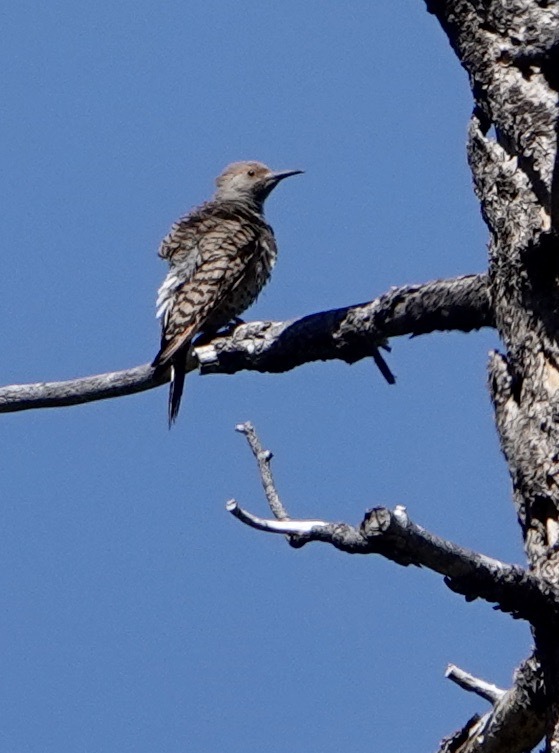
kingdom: Animalia
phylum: Chordata
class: Aves
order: Piciformes
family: Picidae
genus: Colaptes
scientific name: Colaptes auratus
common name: Northern flicker
